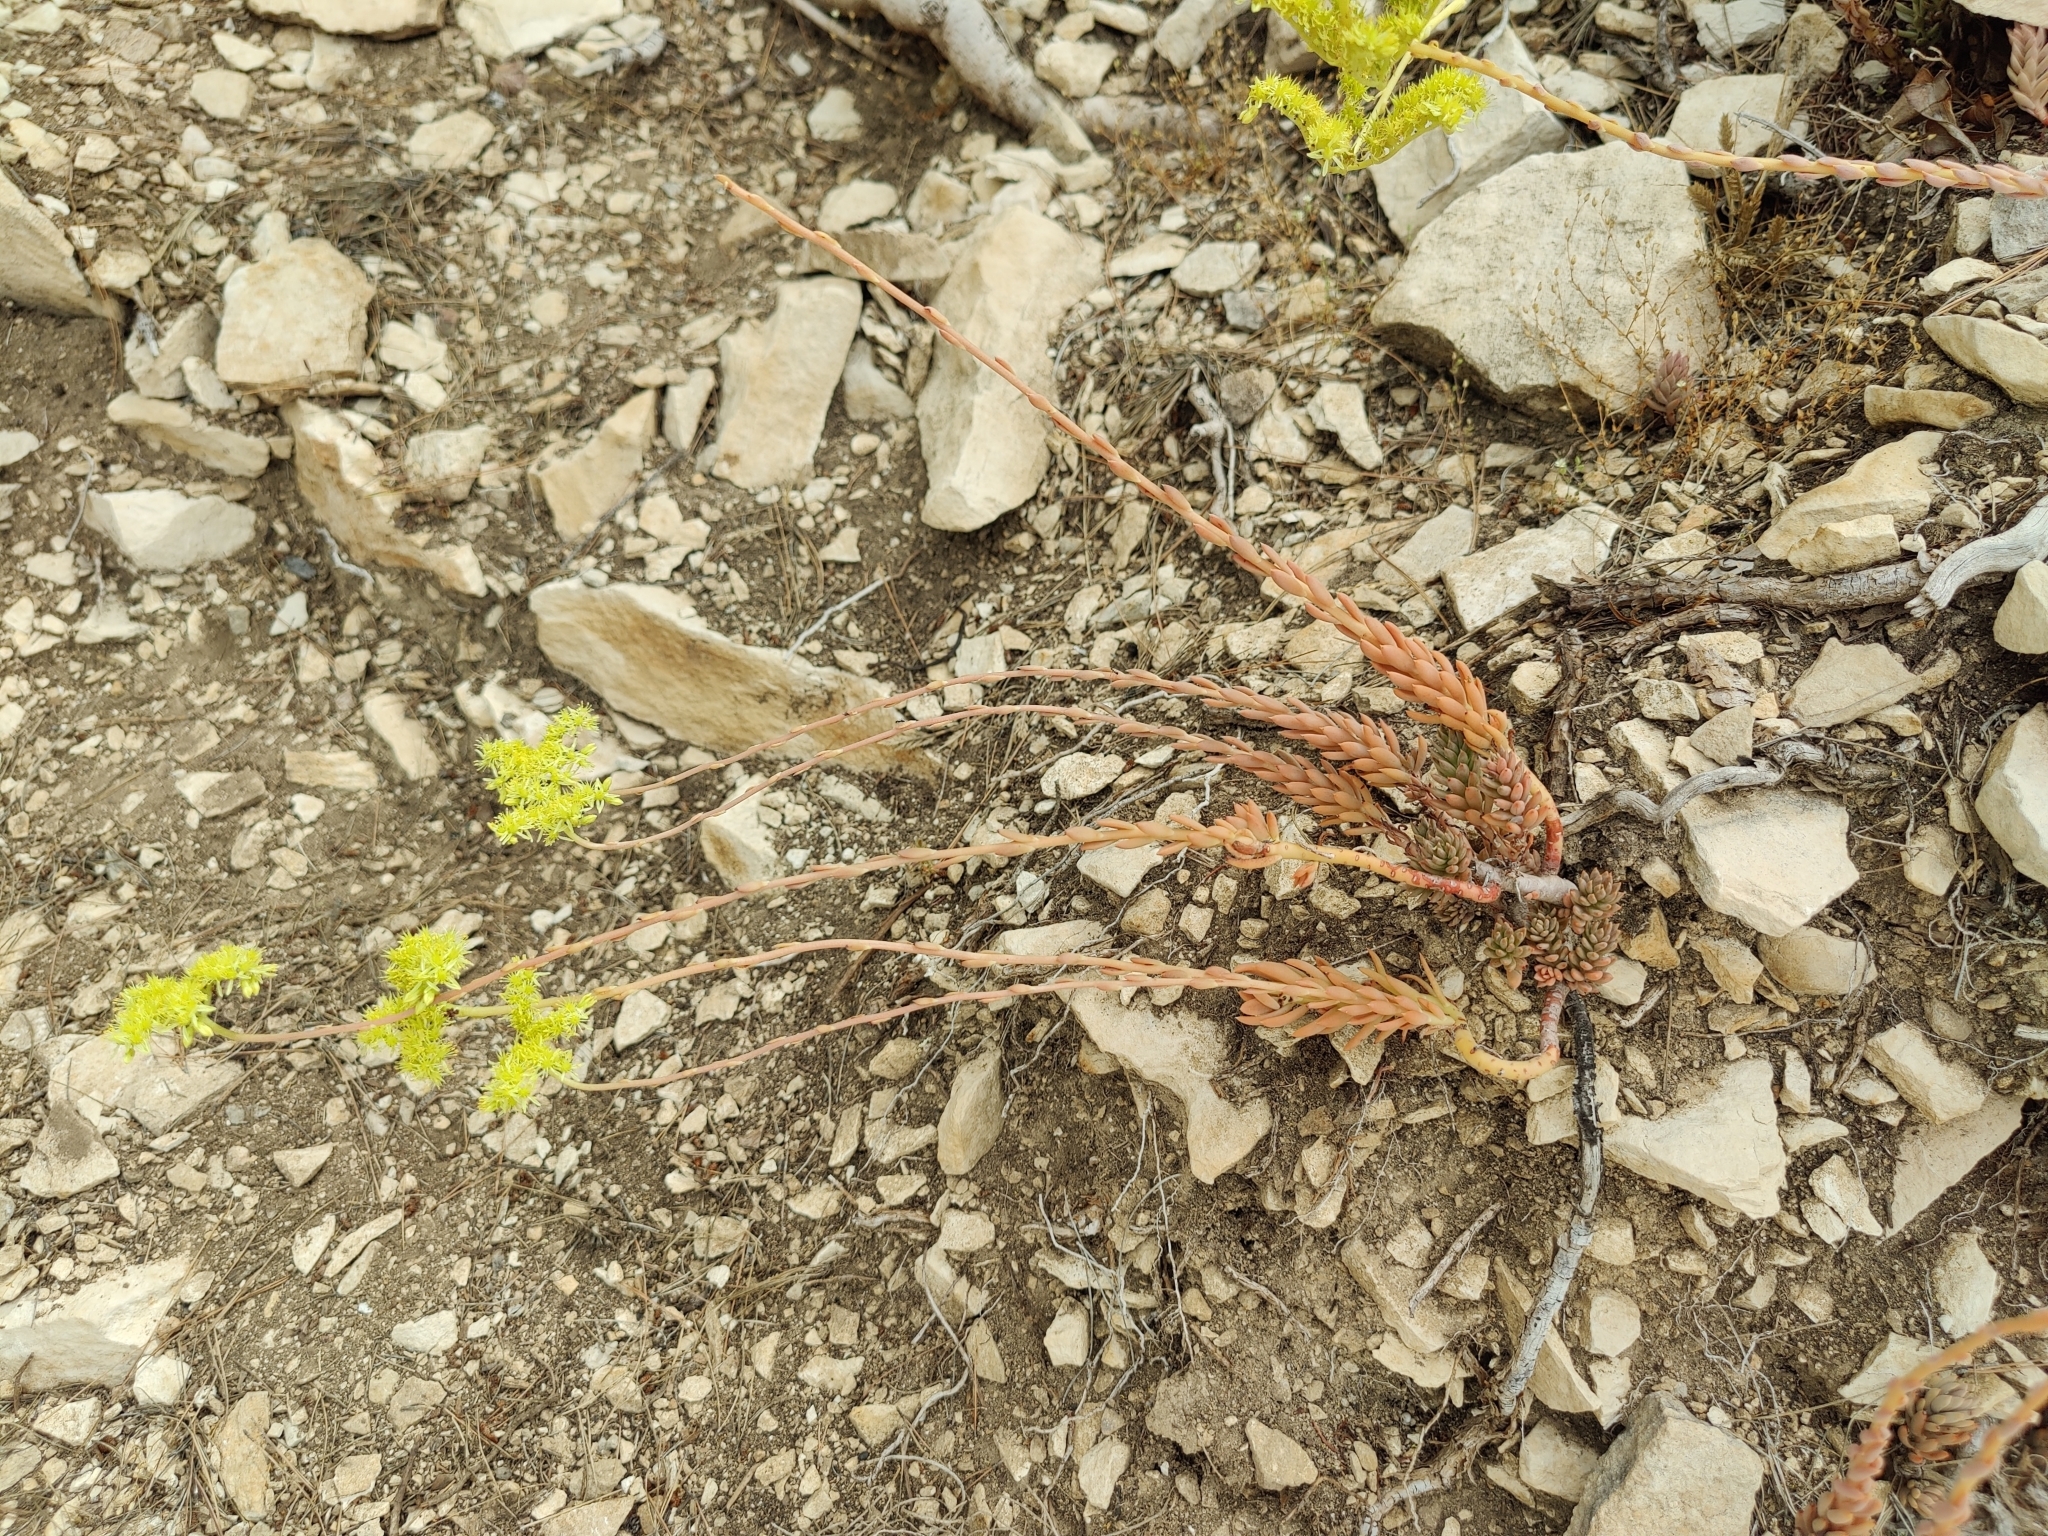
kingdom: Plantae
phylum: Tracheophyta
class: Magnoliopsida
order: Saxifragales
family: Crassulaceae
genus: Petrosedum
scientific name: Petrosedum sediforme
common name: Pale stonecrop
